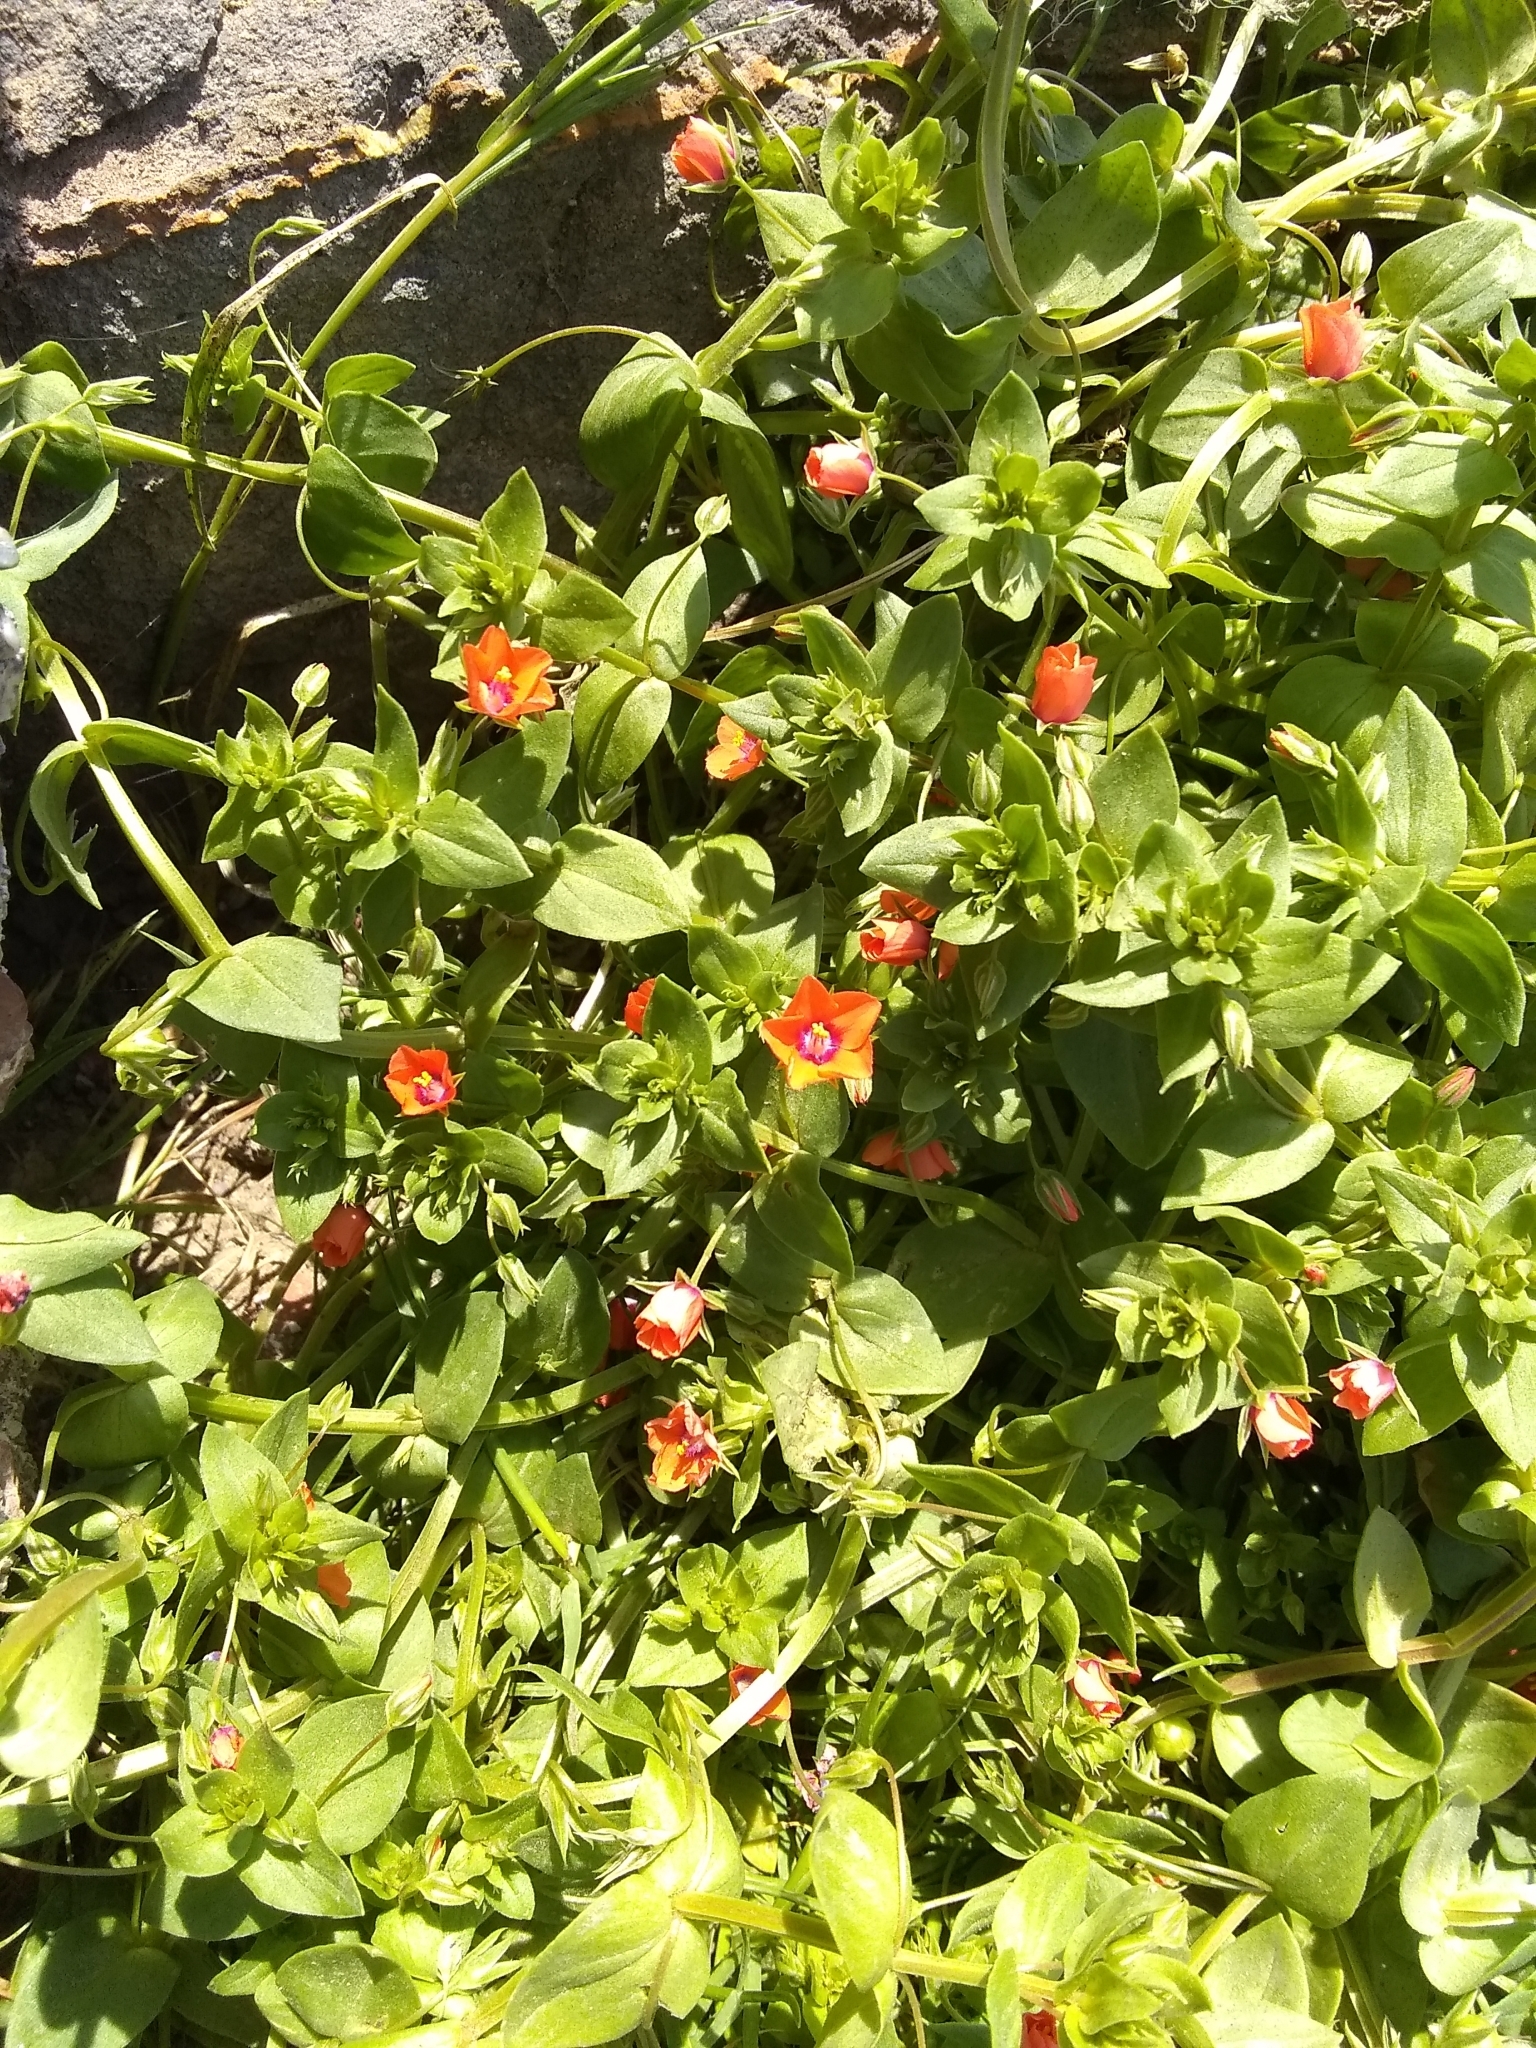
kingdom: Plantae
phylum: Tracheophyta
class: Magnoliopsida
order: Ericales
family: Primulaceae
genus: Lysimachia
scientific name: Lysimachia arvensis
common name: Scarlet pimpernel
